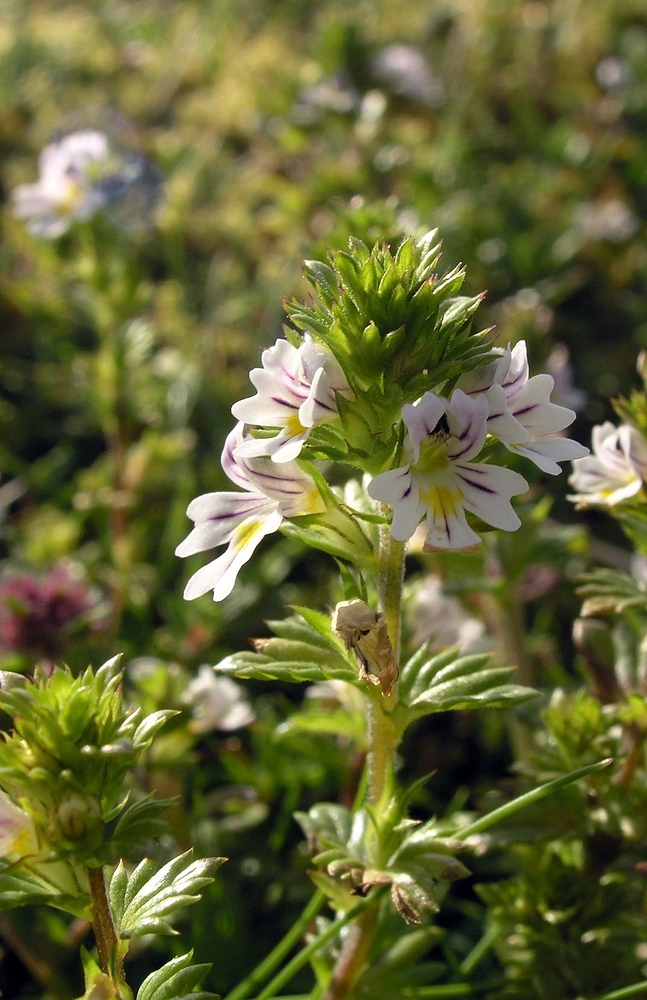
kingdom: Plantae
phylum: Tracheophyta
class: Magnoliopsida
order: Lamiales
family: Orobanchaceae
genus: Euphrasia
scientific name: Euphrasia officinalis
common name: Eyebright
